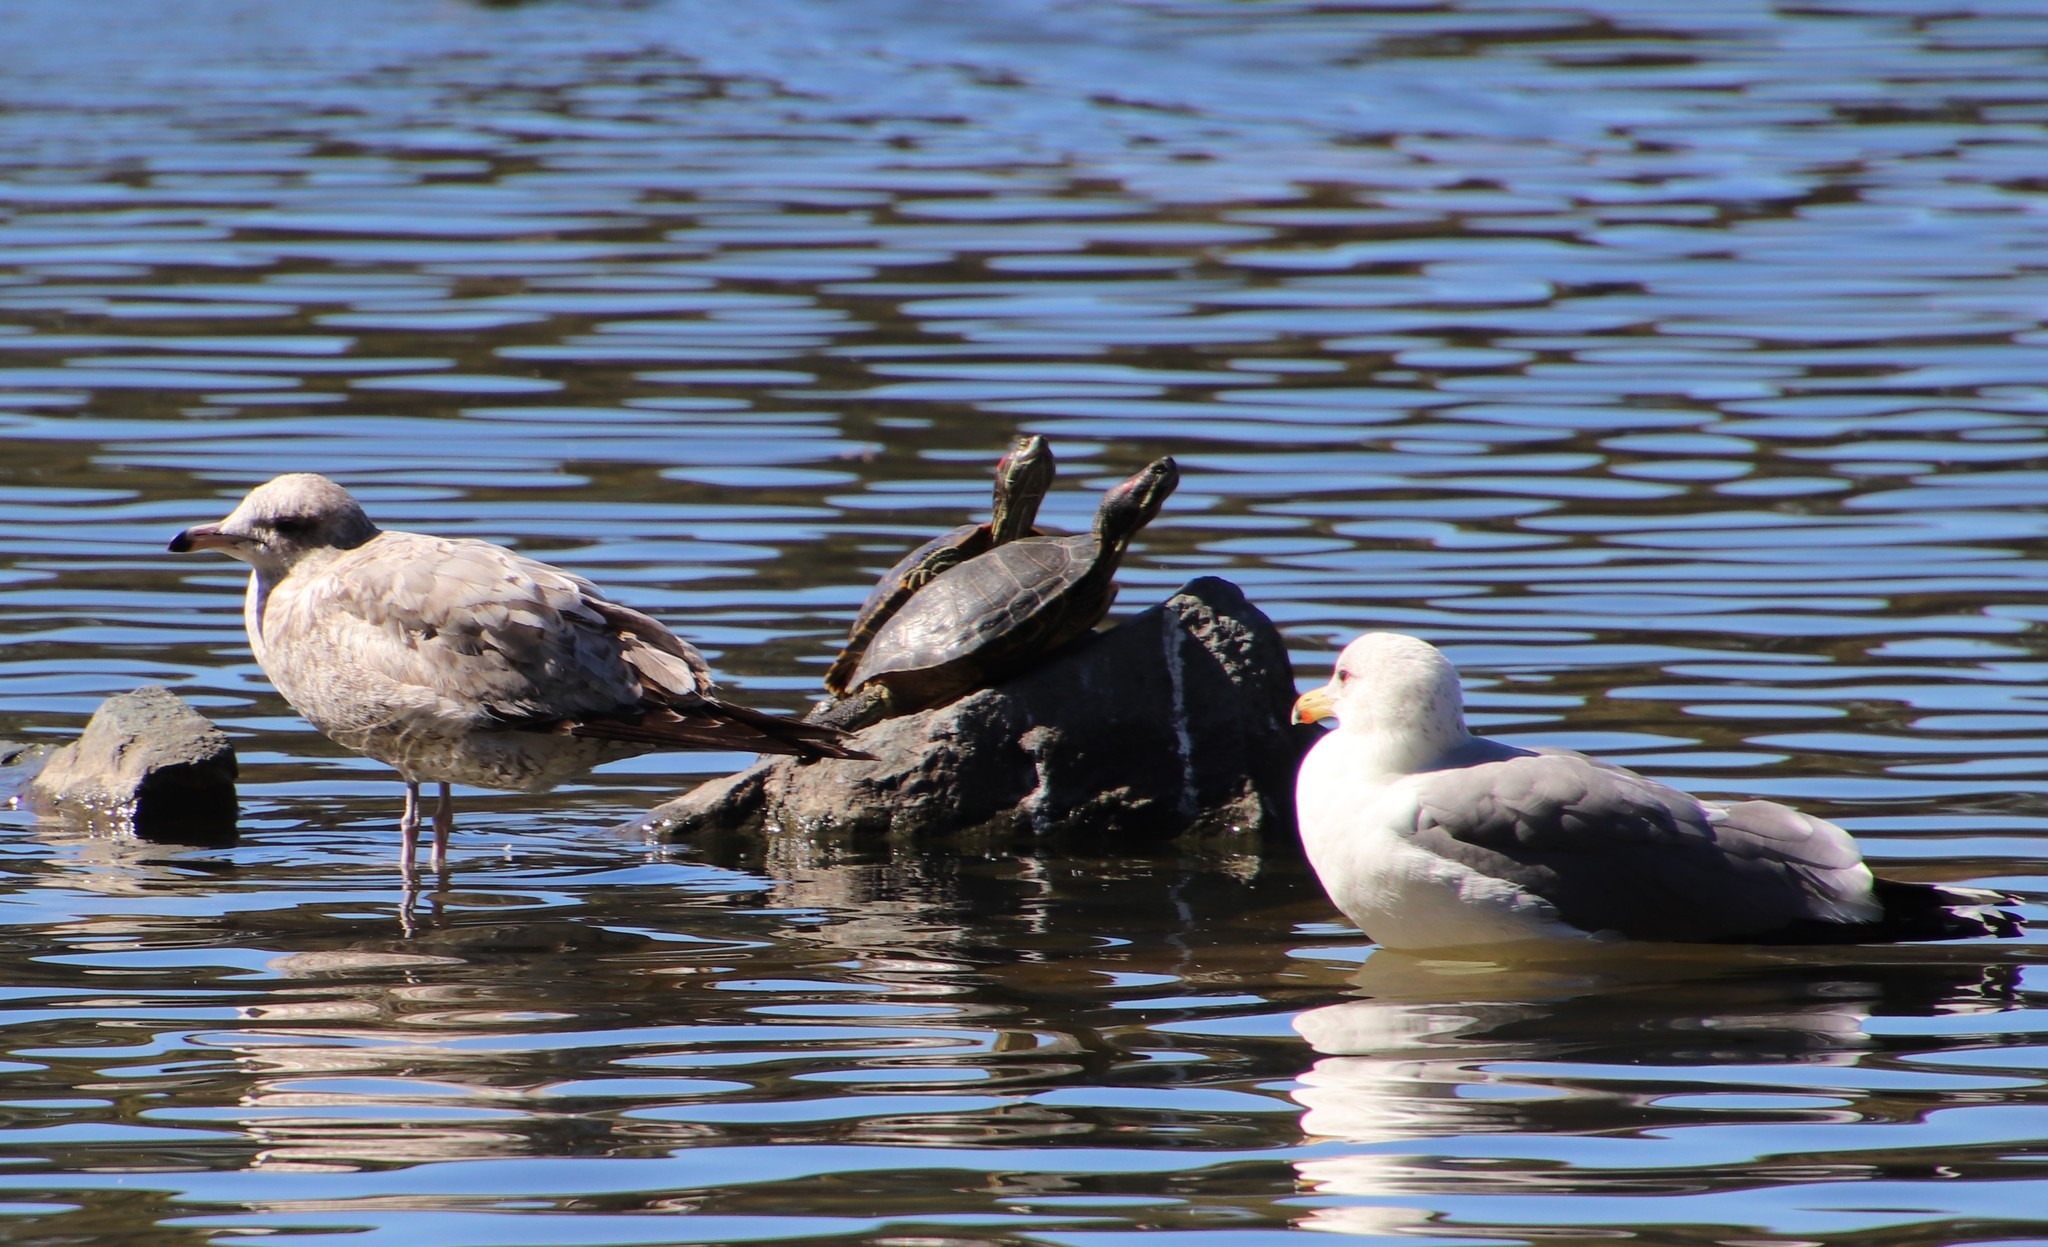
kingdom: Animalia
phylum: Chordata
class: Aves
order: Charadriiformes
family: Laridae
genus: Larus
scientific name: Larus californicus
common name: California gull
